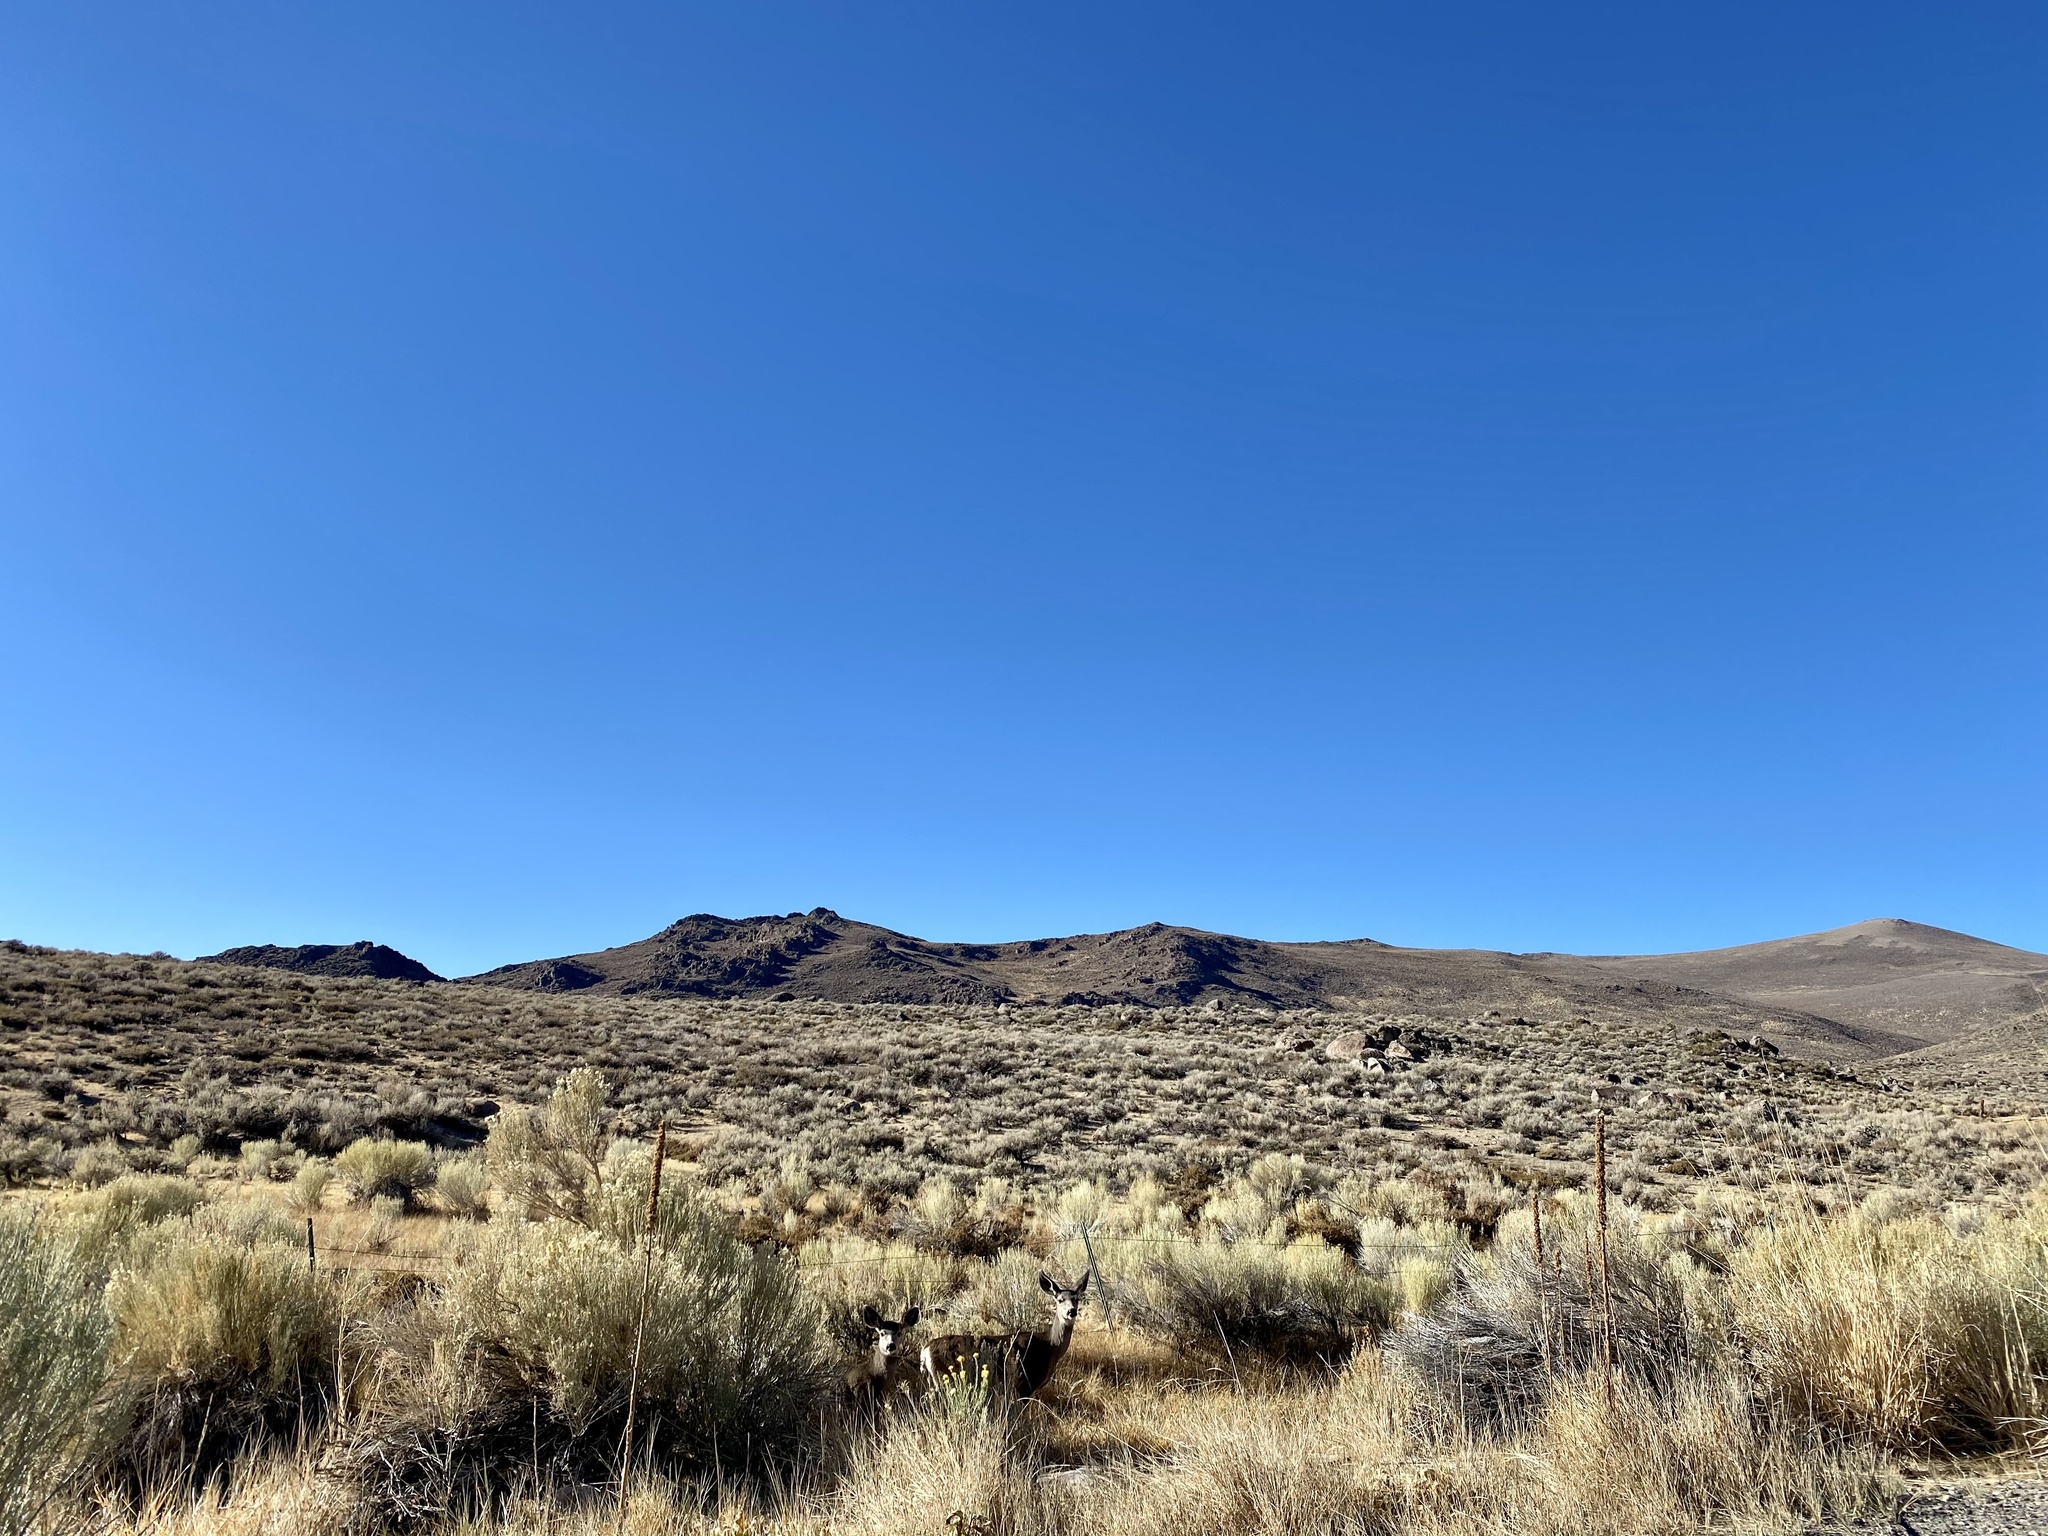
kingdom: Animalia
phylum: Chordata
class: Mammalia
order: Artiodactyla
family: Cervidae
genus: Odocoileus
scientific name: Odocoileus hemionus
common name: Mule deer
